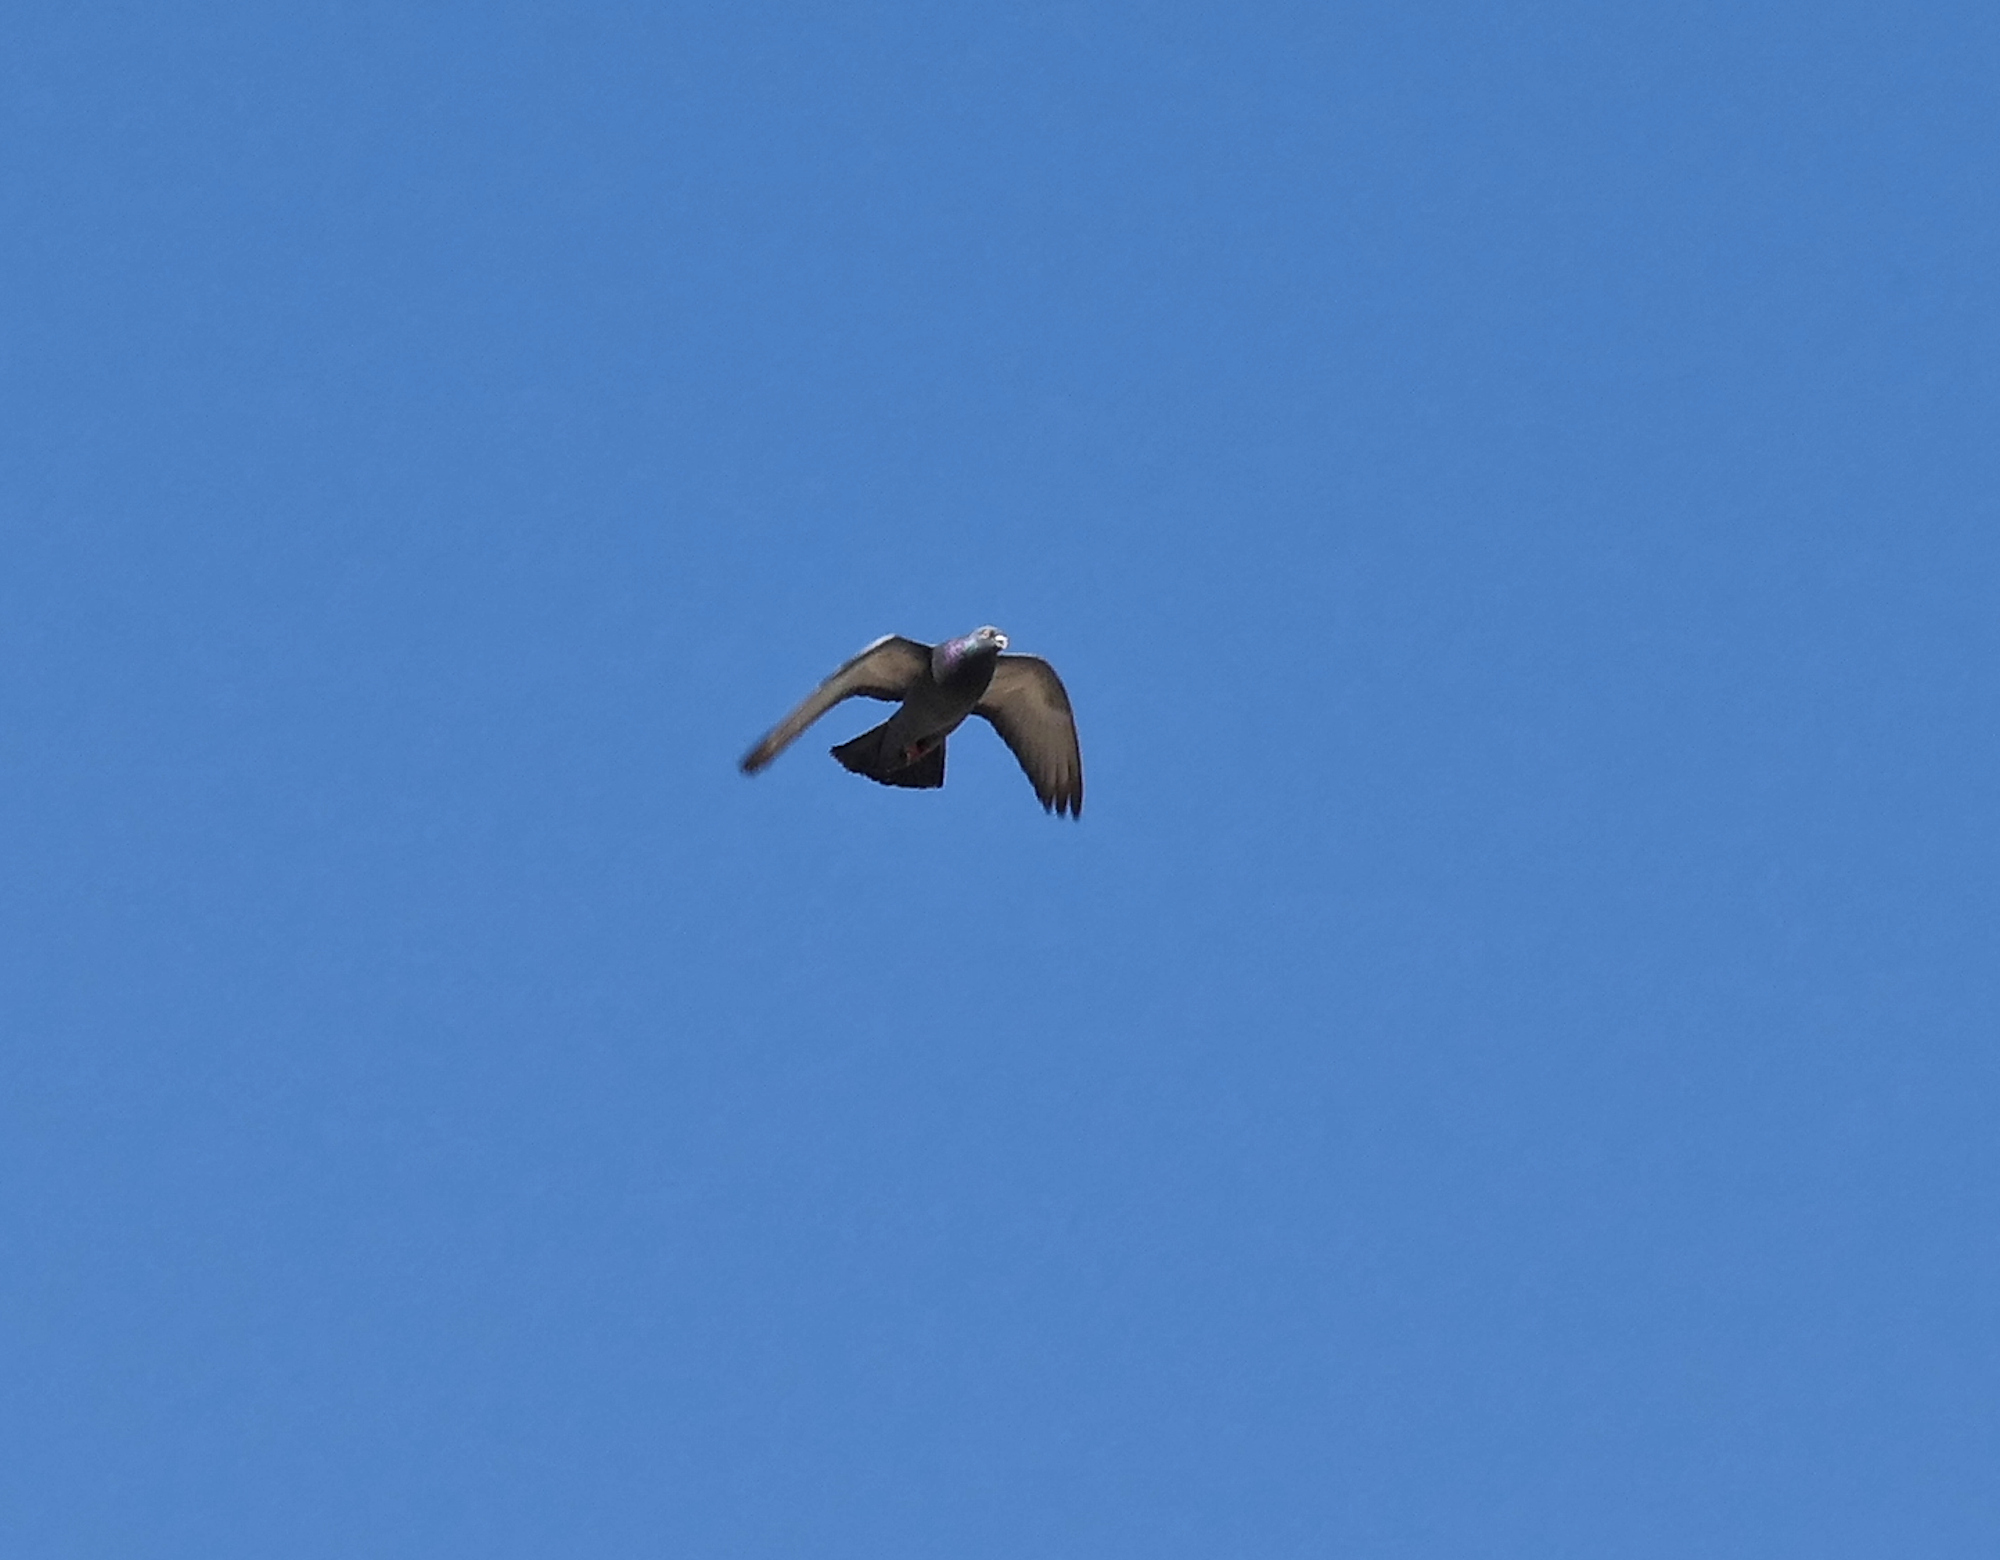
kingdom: Animalia
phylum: Chordata
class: Aves
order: Columbiformes
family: Columbidae
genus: Columba
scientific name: Columba livia
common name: Rock pigeon
